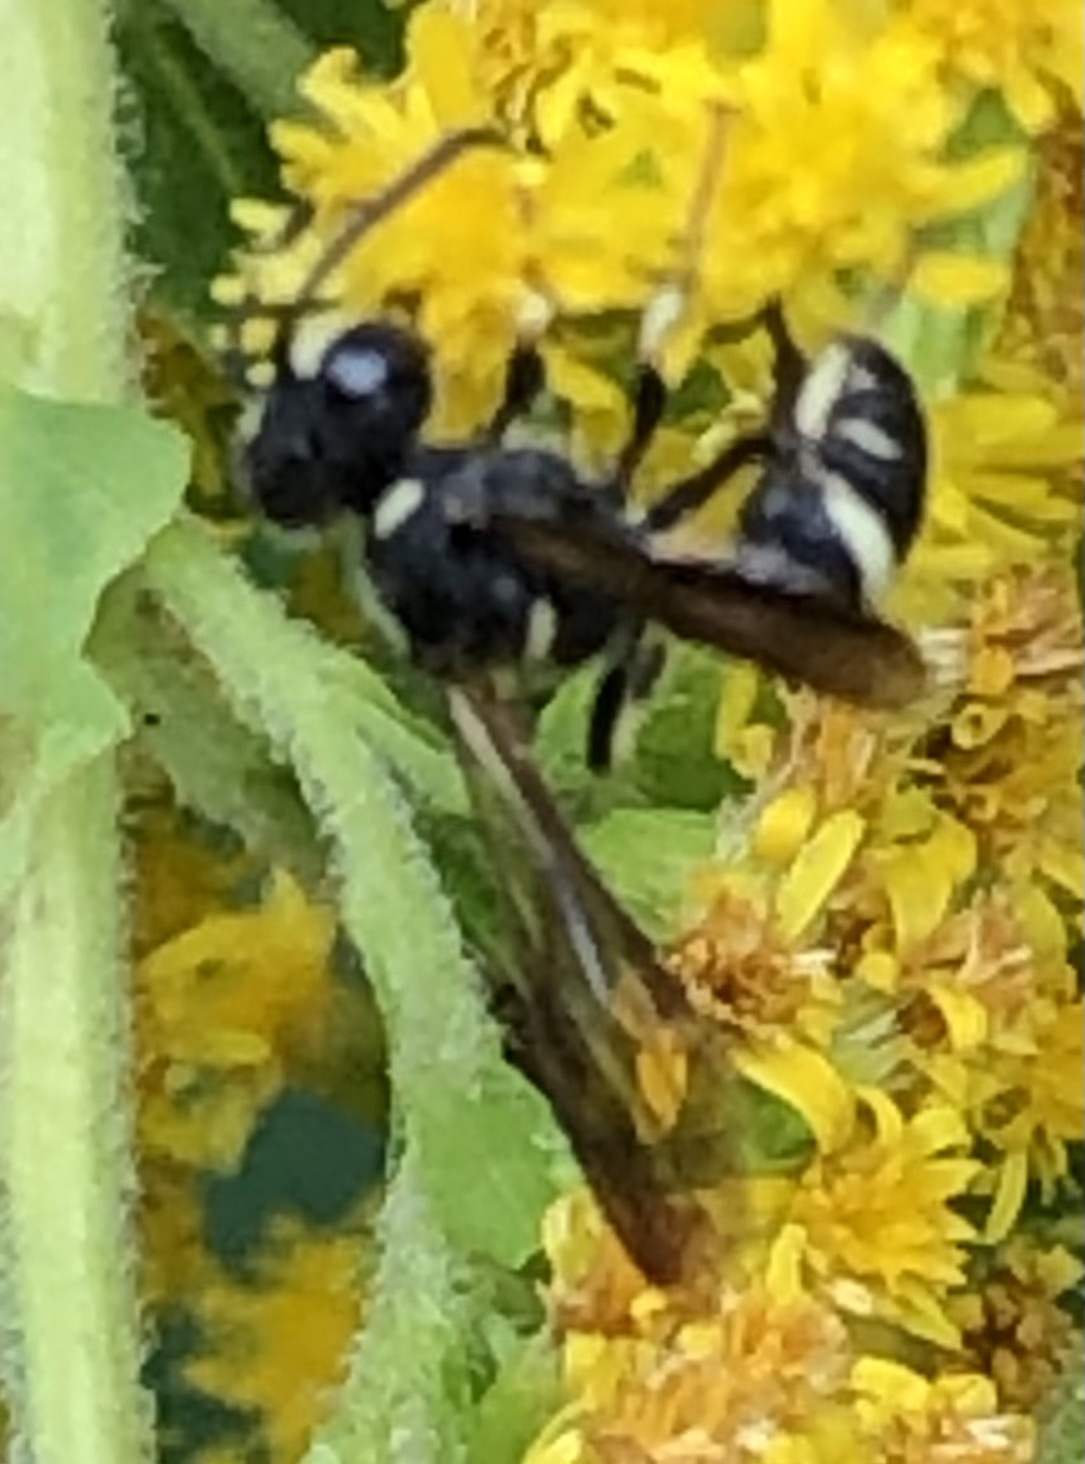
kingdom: Animalia
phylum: Arthropoda
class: Insecta
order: Hymenoptera
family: Crabronidae
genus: Cerceris
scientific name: Cerceris fumipennis
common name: Smokey-winged beetle bandit wasp
